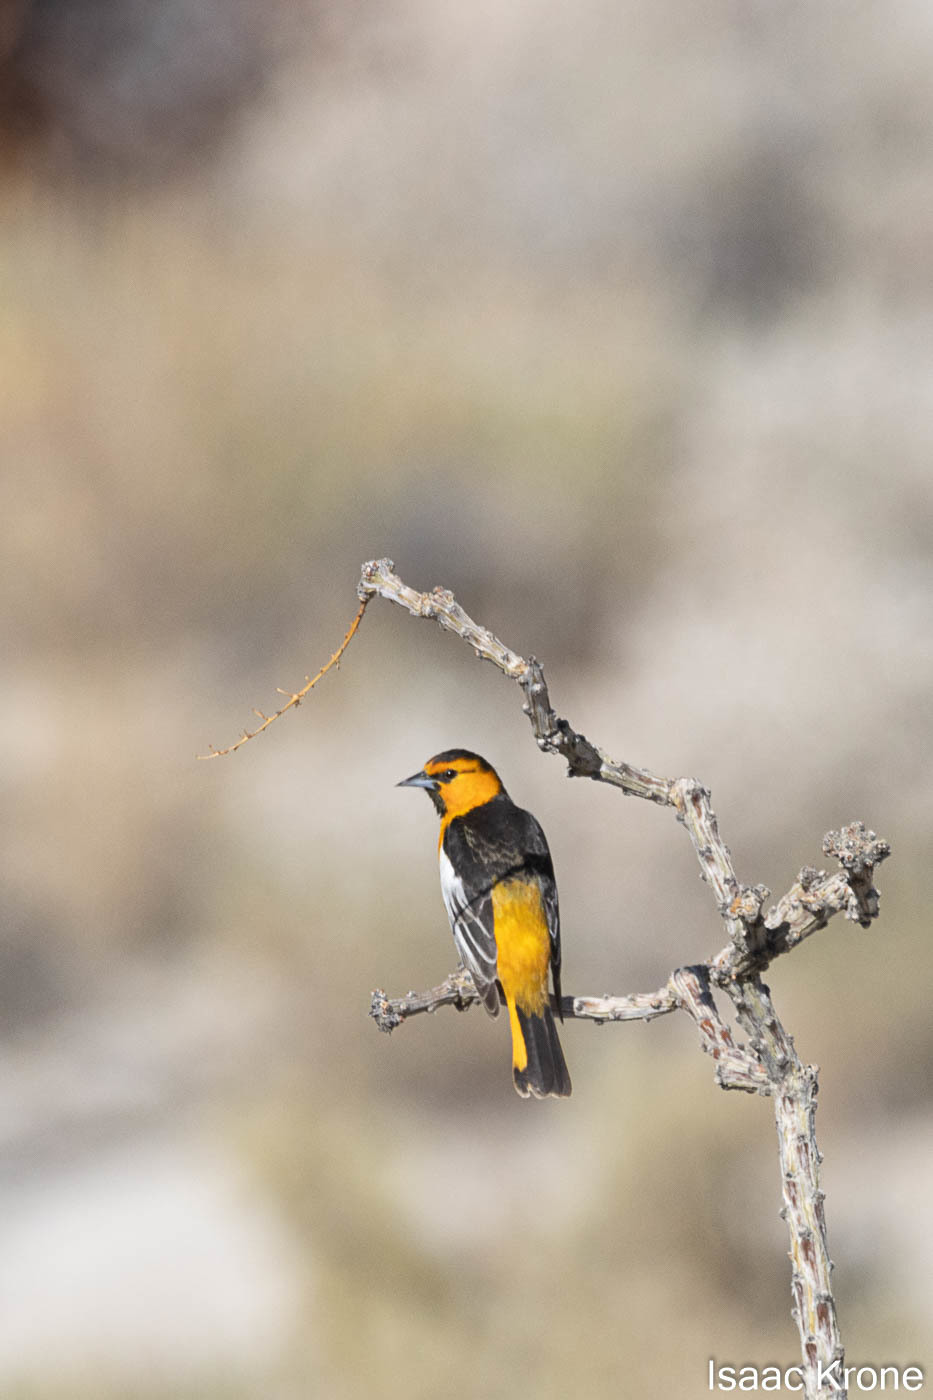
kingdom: Animalia
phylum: Chordata
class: Aves
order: Passeriformes
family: Icteridae
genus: Icterus
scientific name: Icterus bullockii
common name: Bullock's oriole
